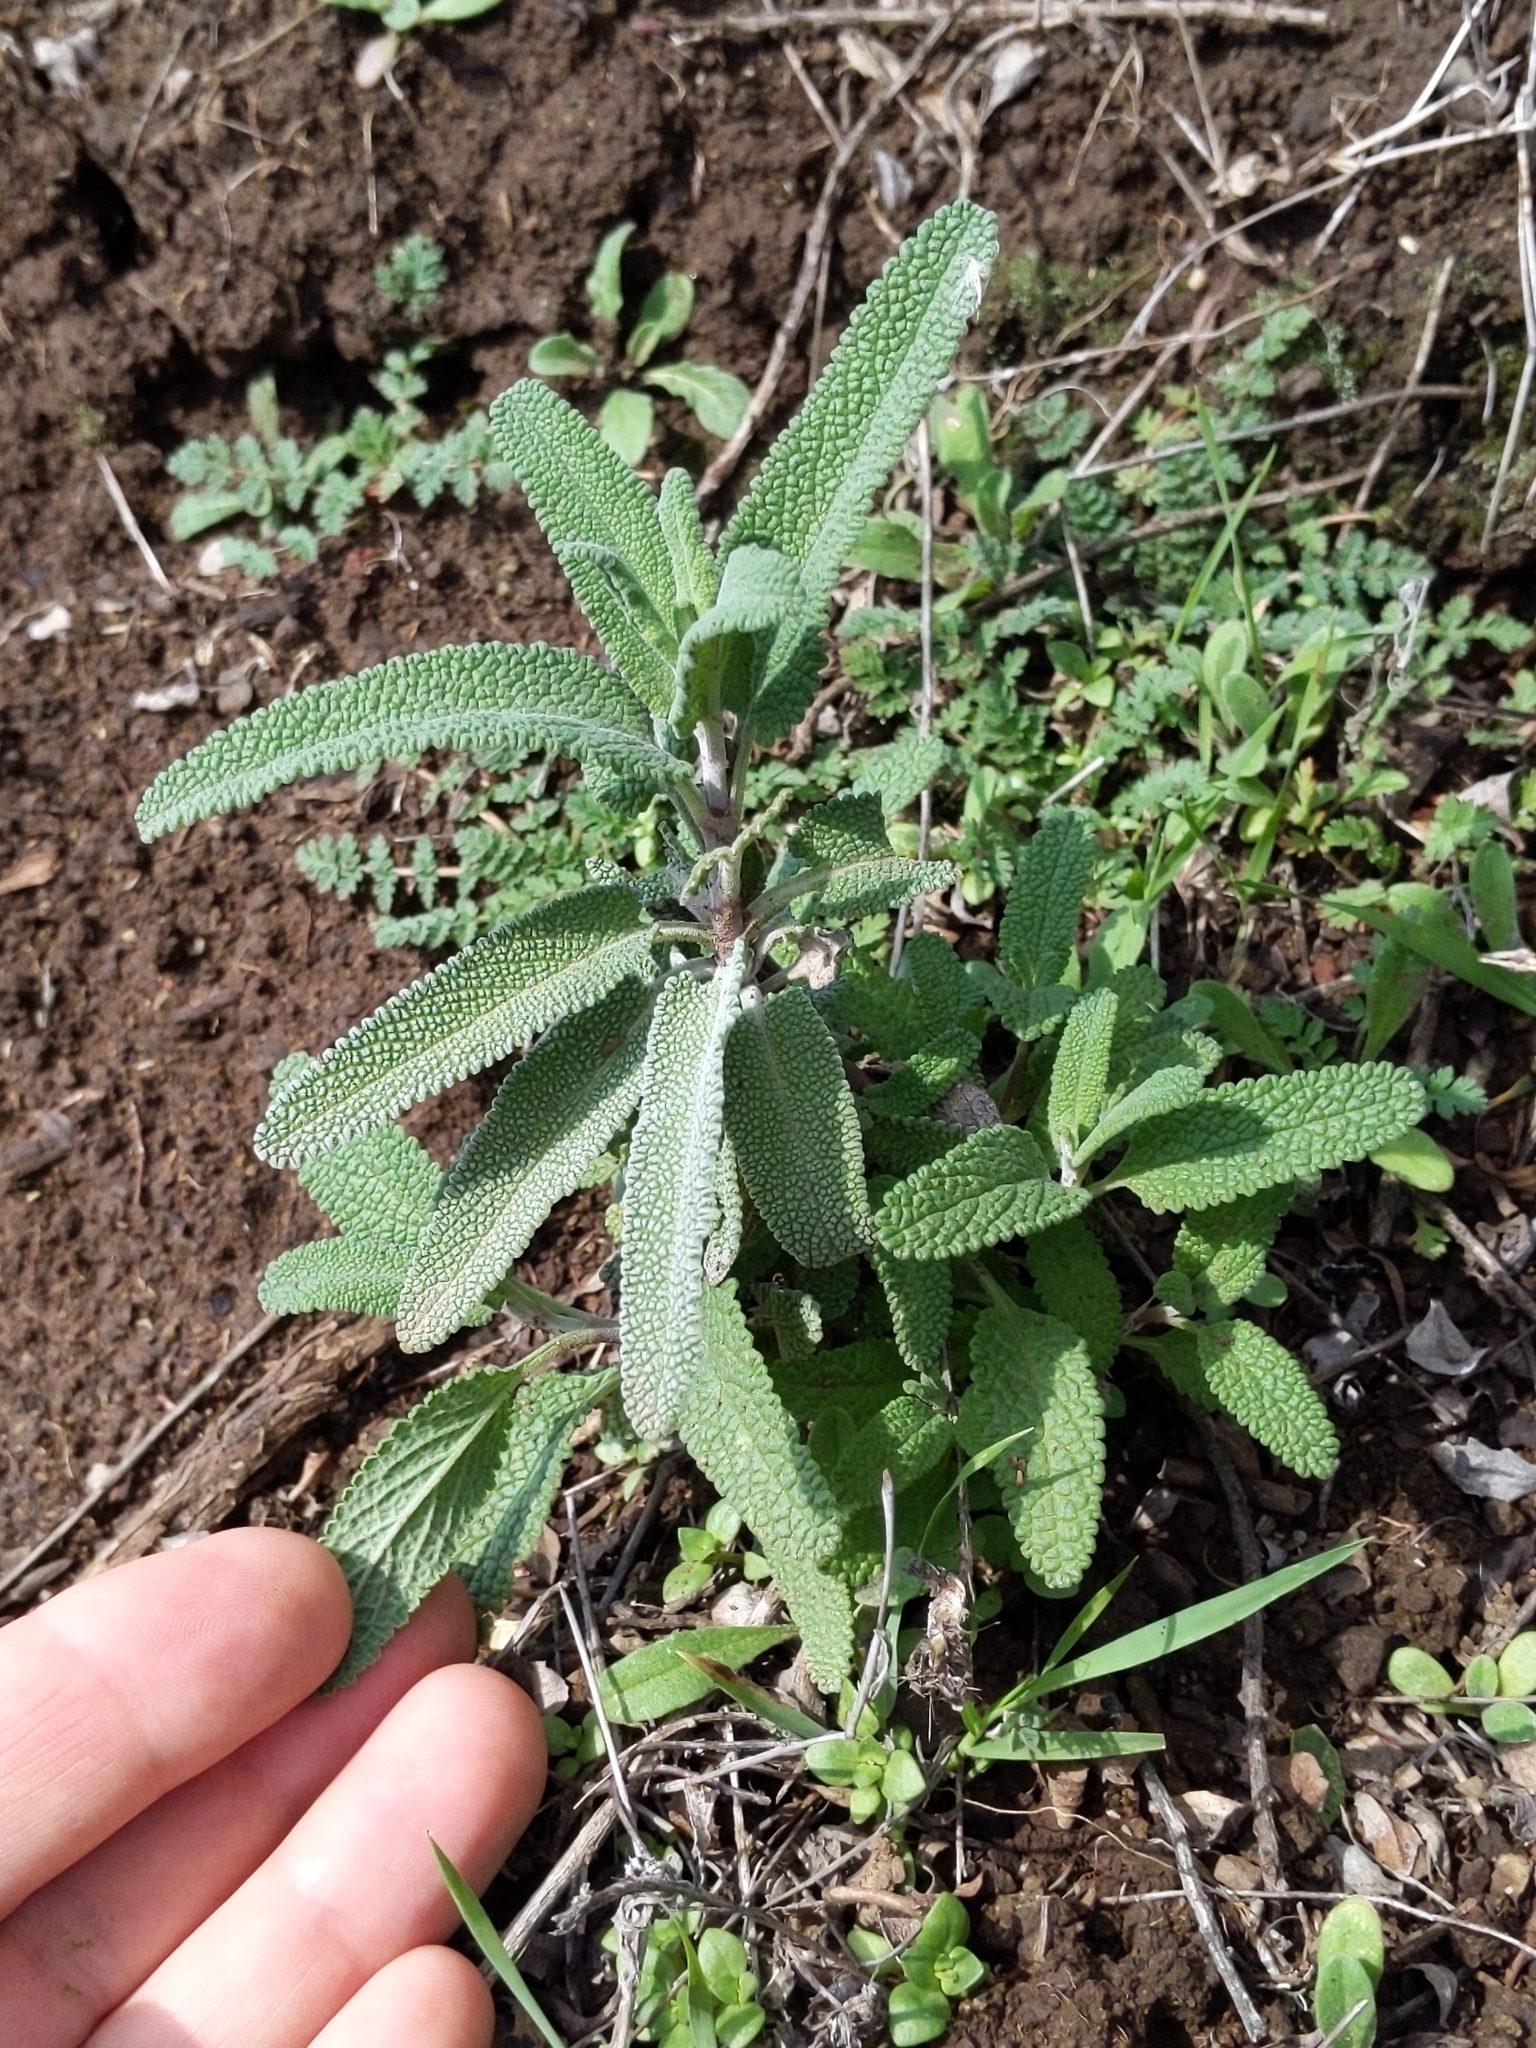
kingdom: Plantae
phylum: Tracheophyta
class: Magnoliopsida
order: Lamiales
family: Lamiaceae
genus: Salvia
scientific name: Salvia leucophylla
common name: Purple sage
